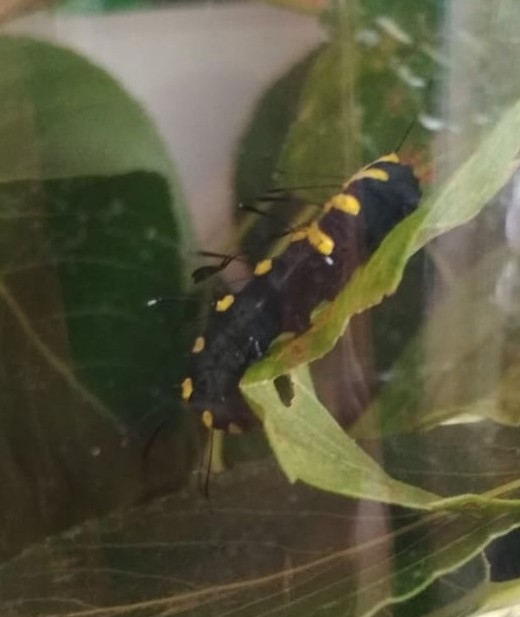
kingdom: Animalia
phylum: Arthropoda
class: Insecta
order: Lepidoptera
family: Noctuidae
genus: Acronicta
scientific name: Acronicta alni
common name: Alder moth
